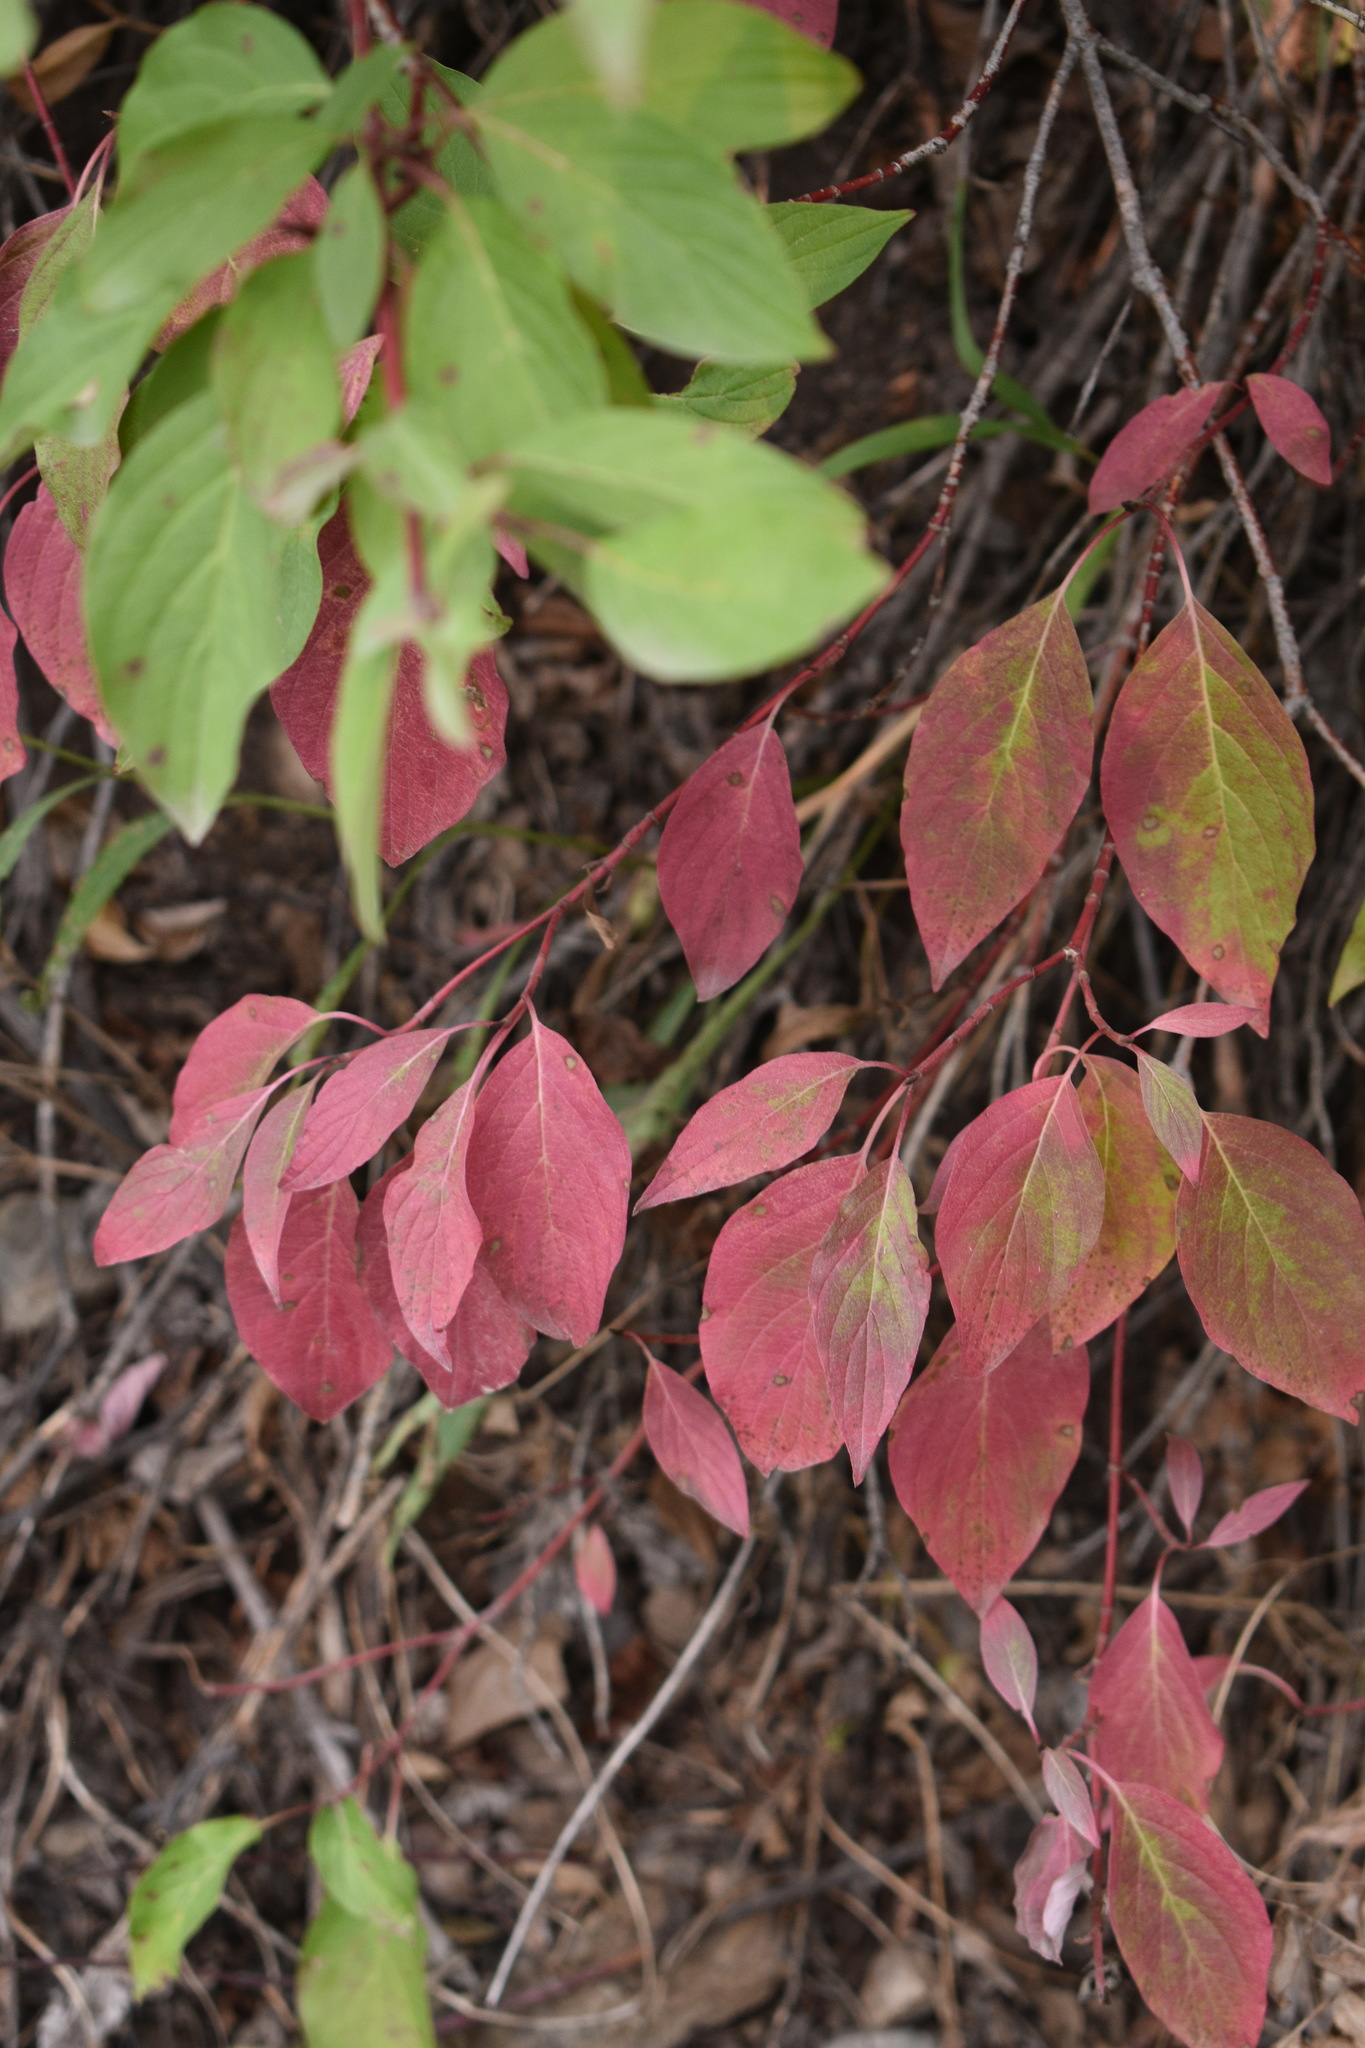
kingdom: Plantae
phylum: Tracheophyta
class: Magnoliopsida
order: Cornales
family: Cornaceae
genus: Cornus
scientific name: Cornus sericea
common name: Red-osier dogwood
